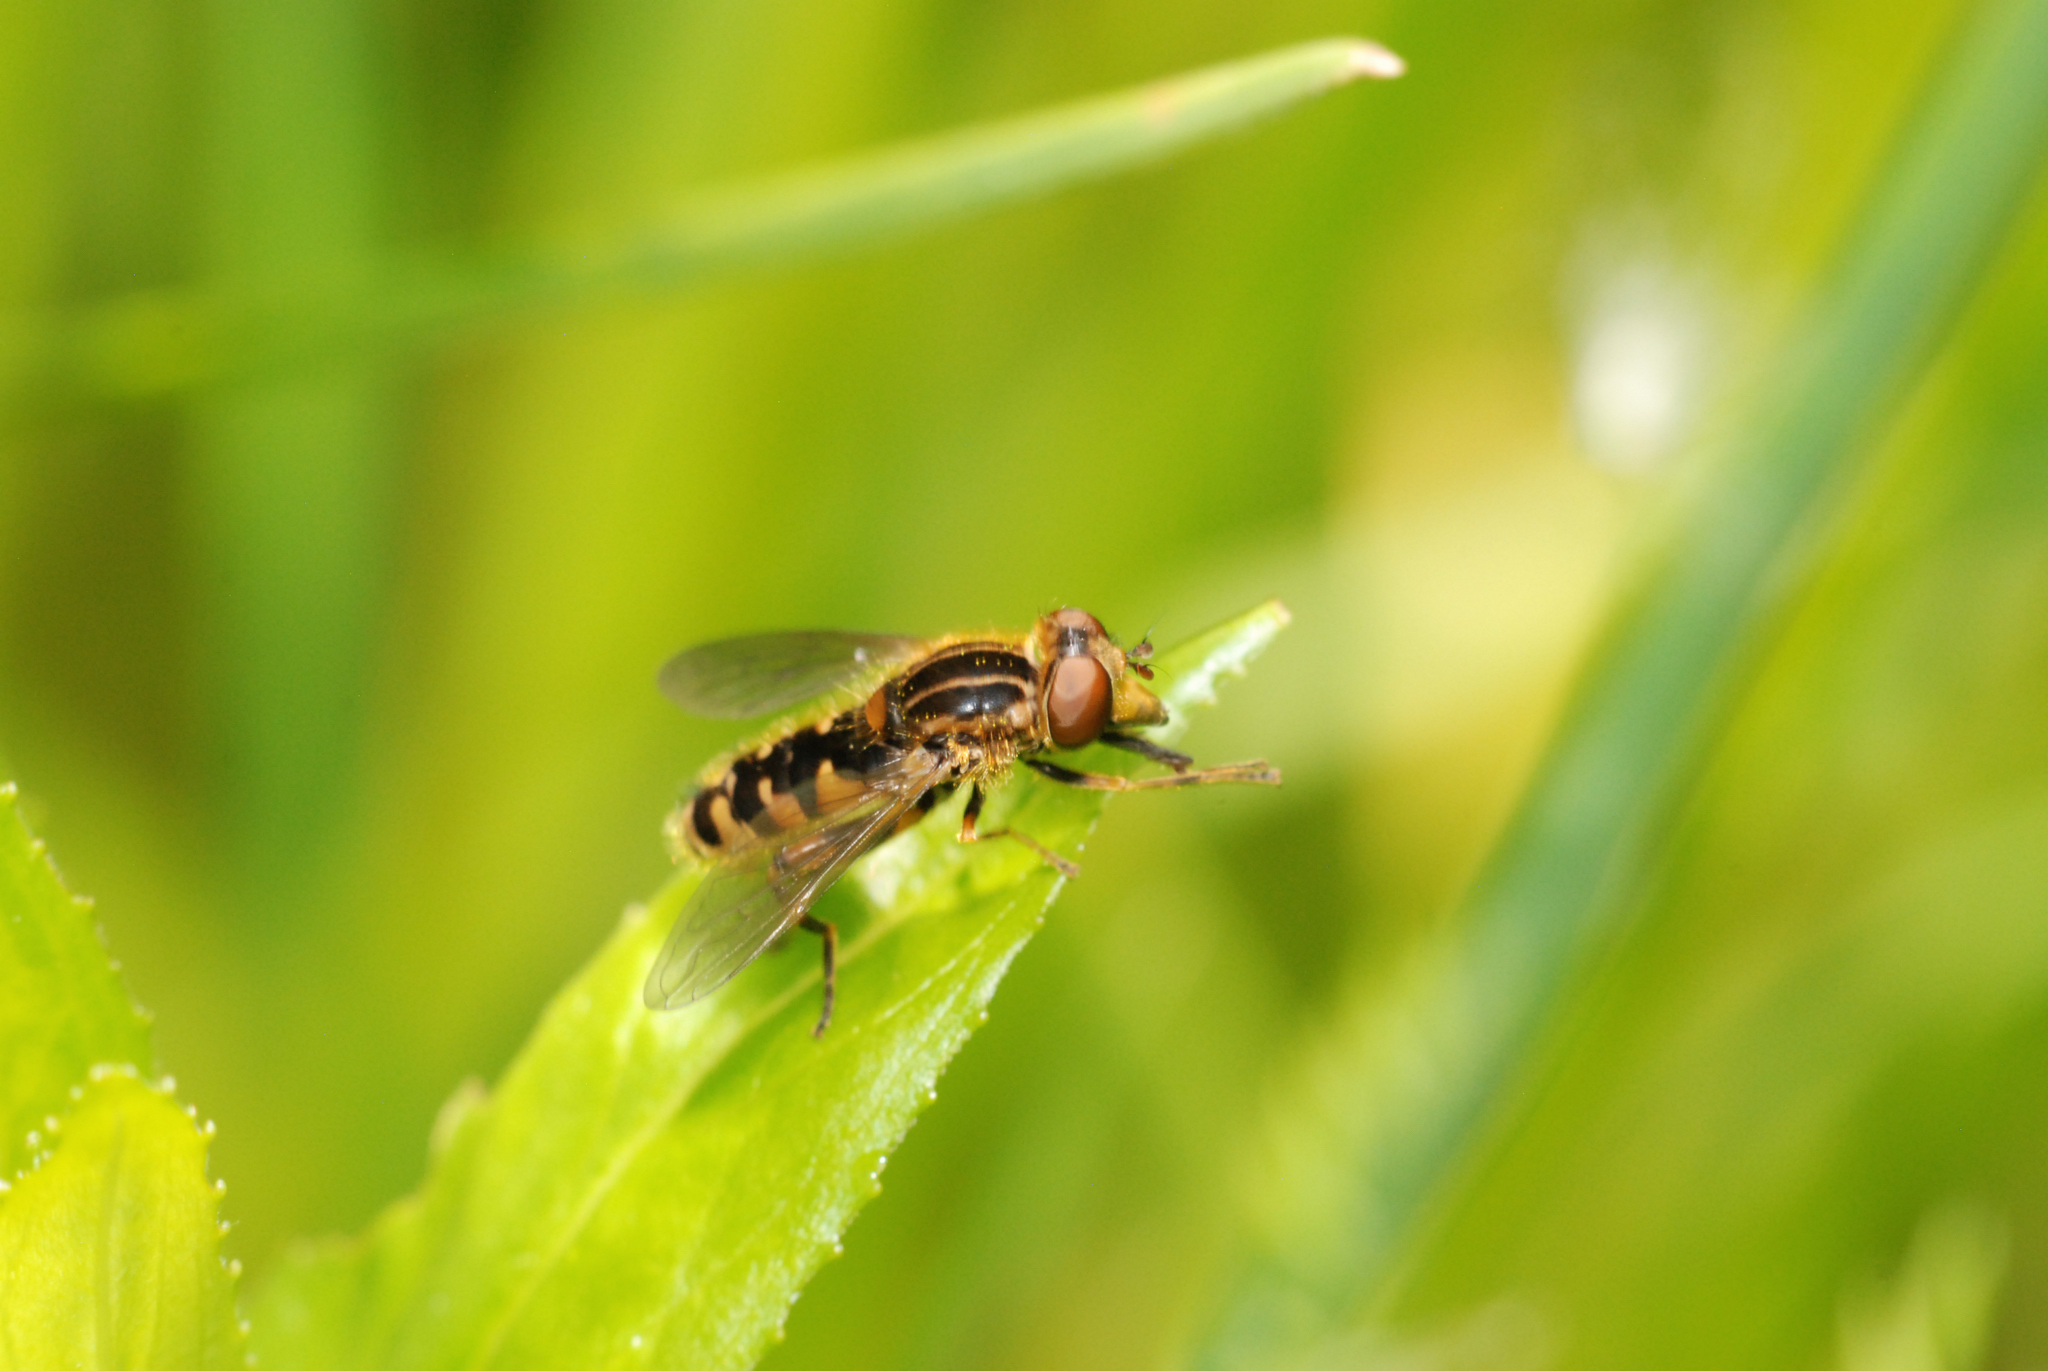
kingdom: Animalia
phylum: Arthropoda
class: Insecta
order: Diptera
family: Syrphidae
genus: Eurimyia
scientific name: Eurimyia lineatus
